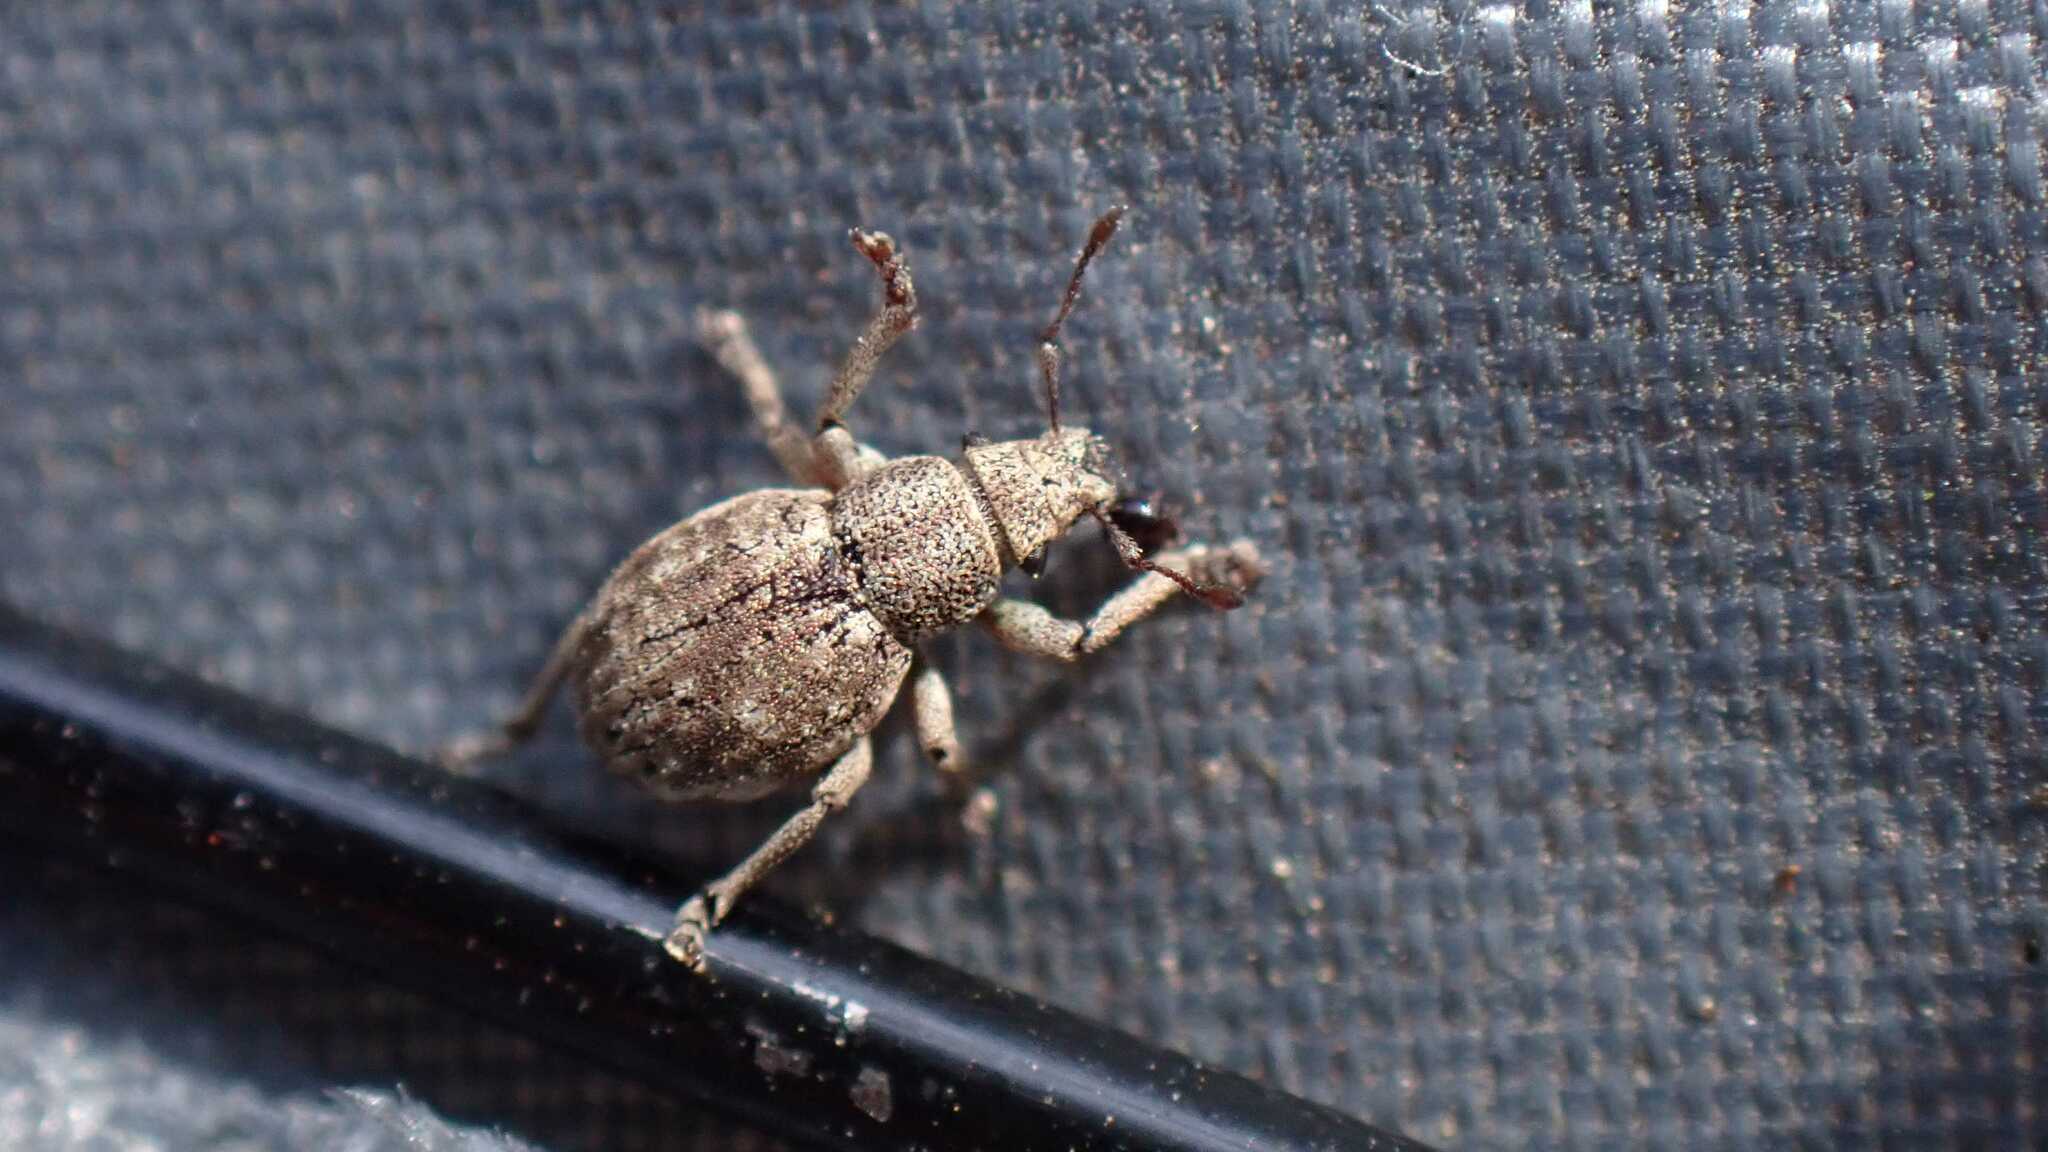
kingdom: Animalia
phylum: Arthropoda
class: Insecta
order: Coleoptera
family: Curculionidae
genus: Strophosoma
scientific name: Strophosoma capitatum
